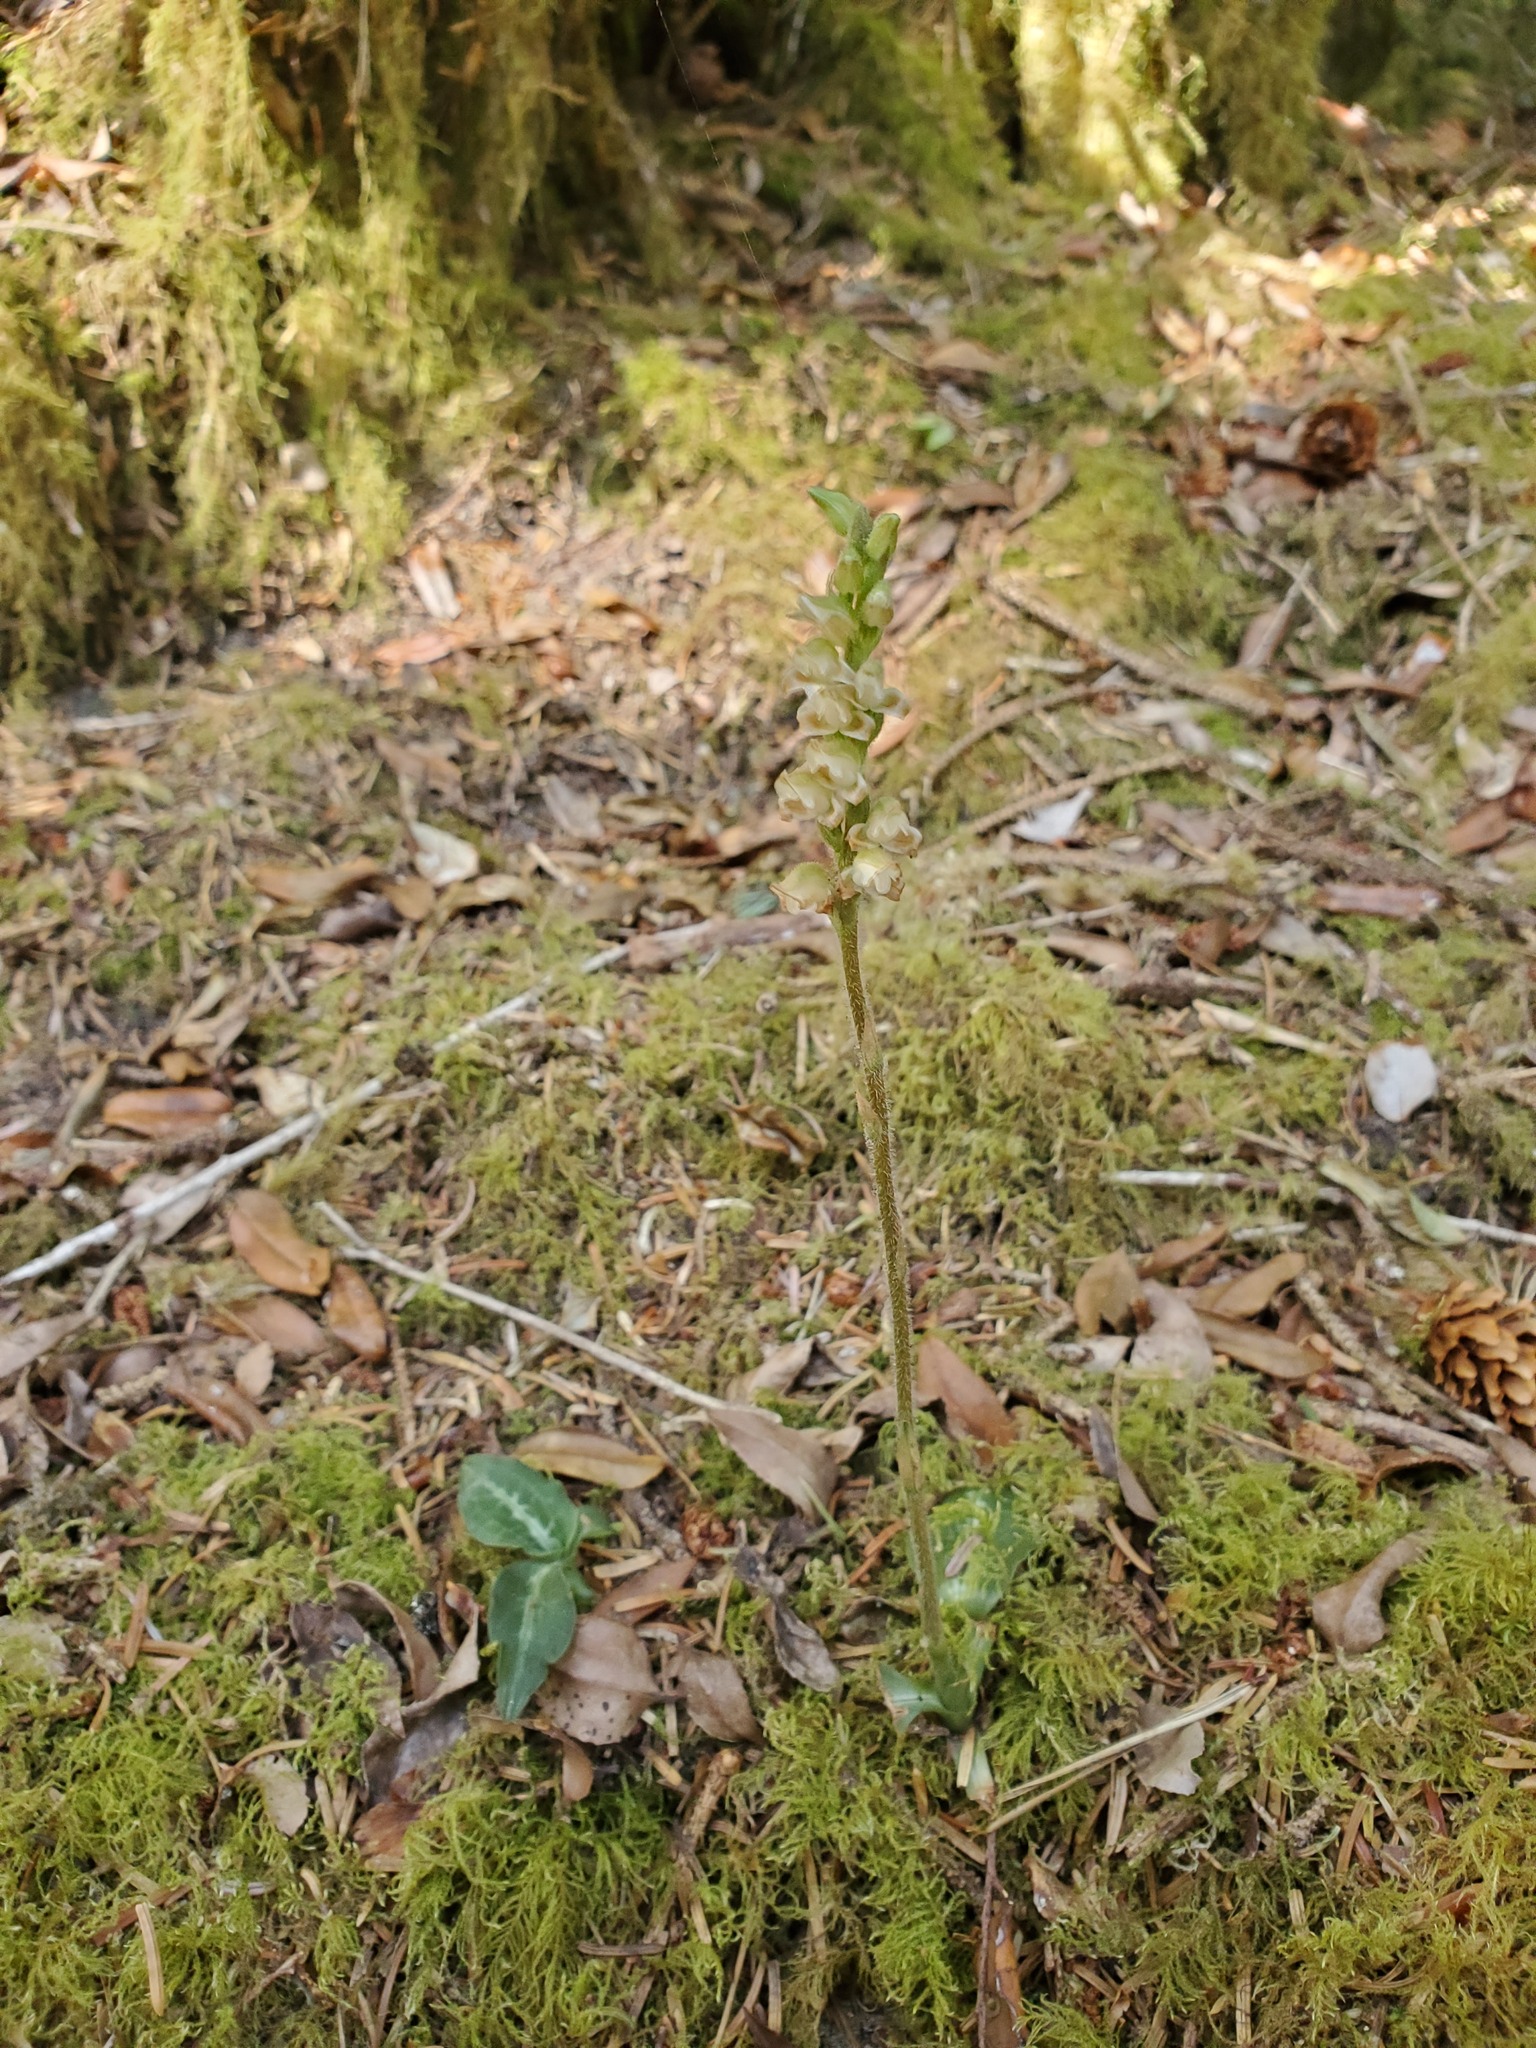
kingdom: Plantae
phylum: Tracheophyta
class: Liliopsida
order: Asparagales
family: Orchidaceae
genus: Goodyera
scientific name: Goodyera oblongifolia
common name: Giant rattlesnake-plantain
